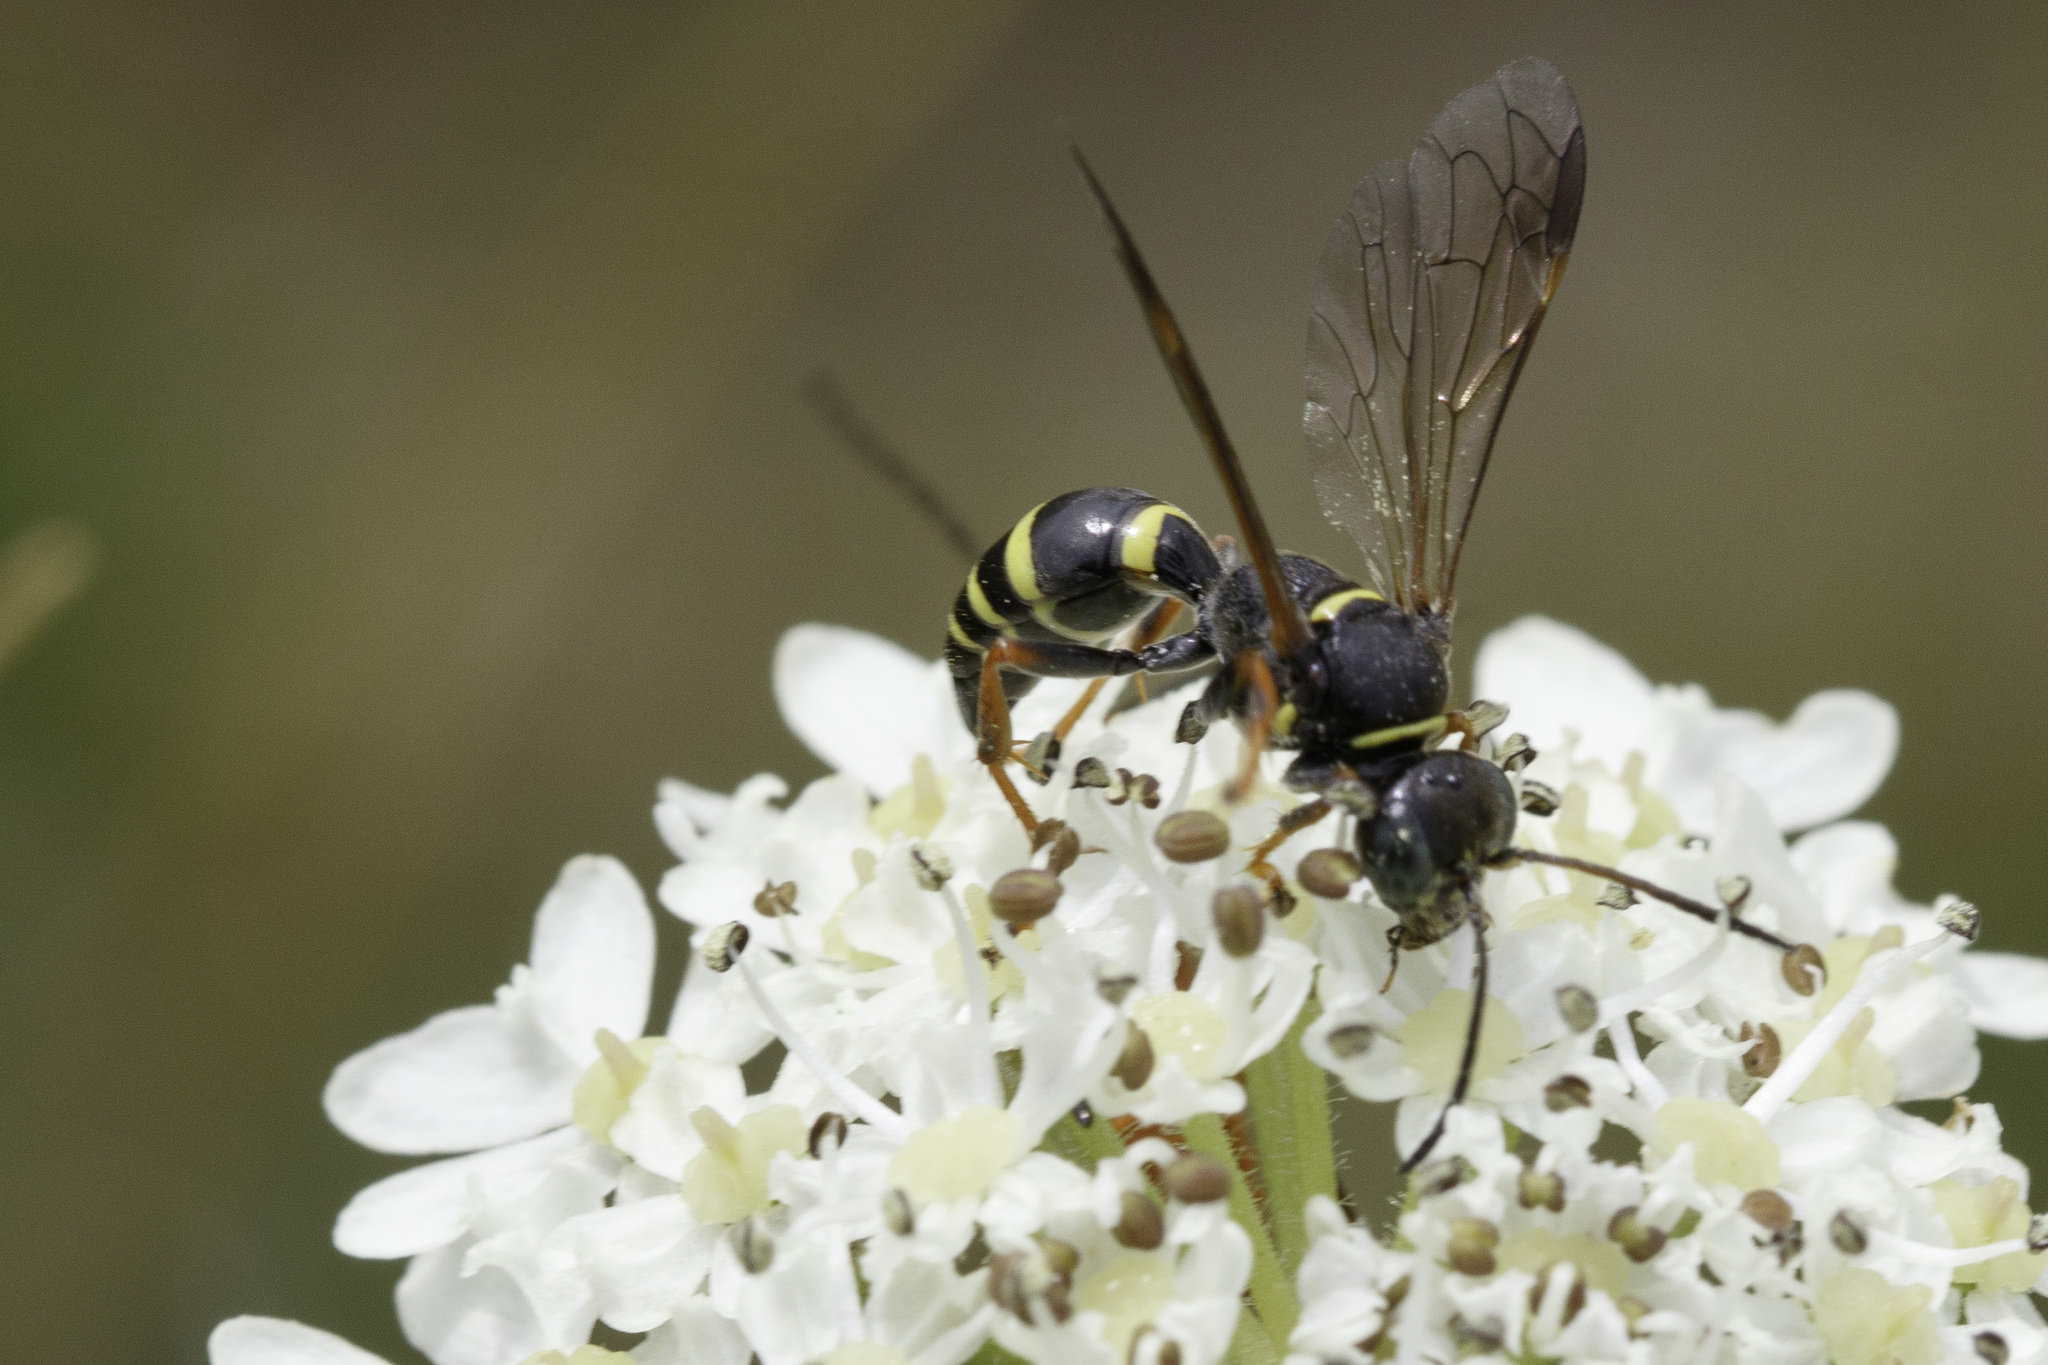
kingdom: Animalia
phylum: Arthropoda
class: Insecta
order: Hymenoptera
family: Crabronidae
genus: Gorytes
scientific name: Gorytes quadrifasciatus
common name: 4-banded digger wasp
